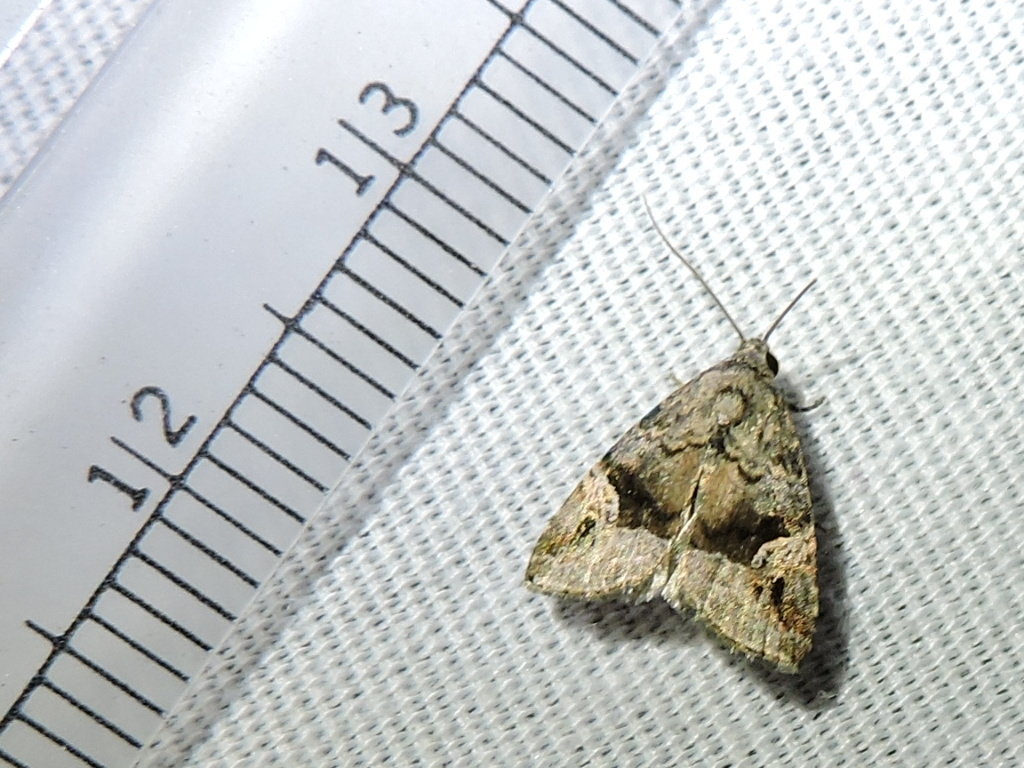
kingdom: Animalia
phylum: Arthropoda
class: Insecta
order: Lepidoptera
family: Noctuidae
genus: Ozarba
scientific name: Ozarba nebula
